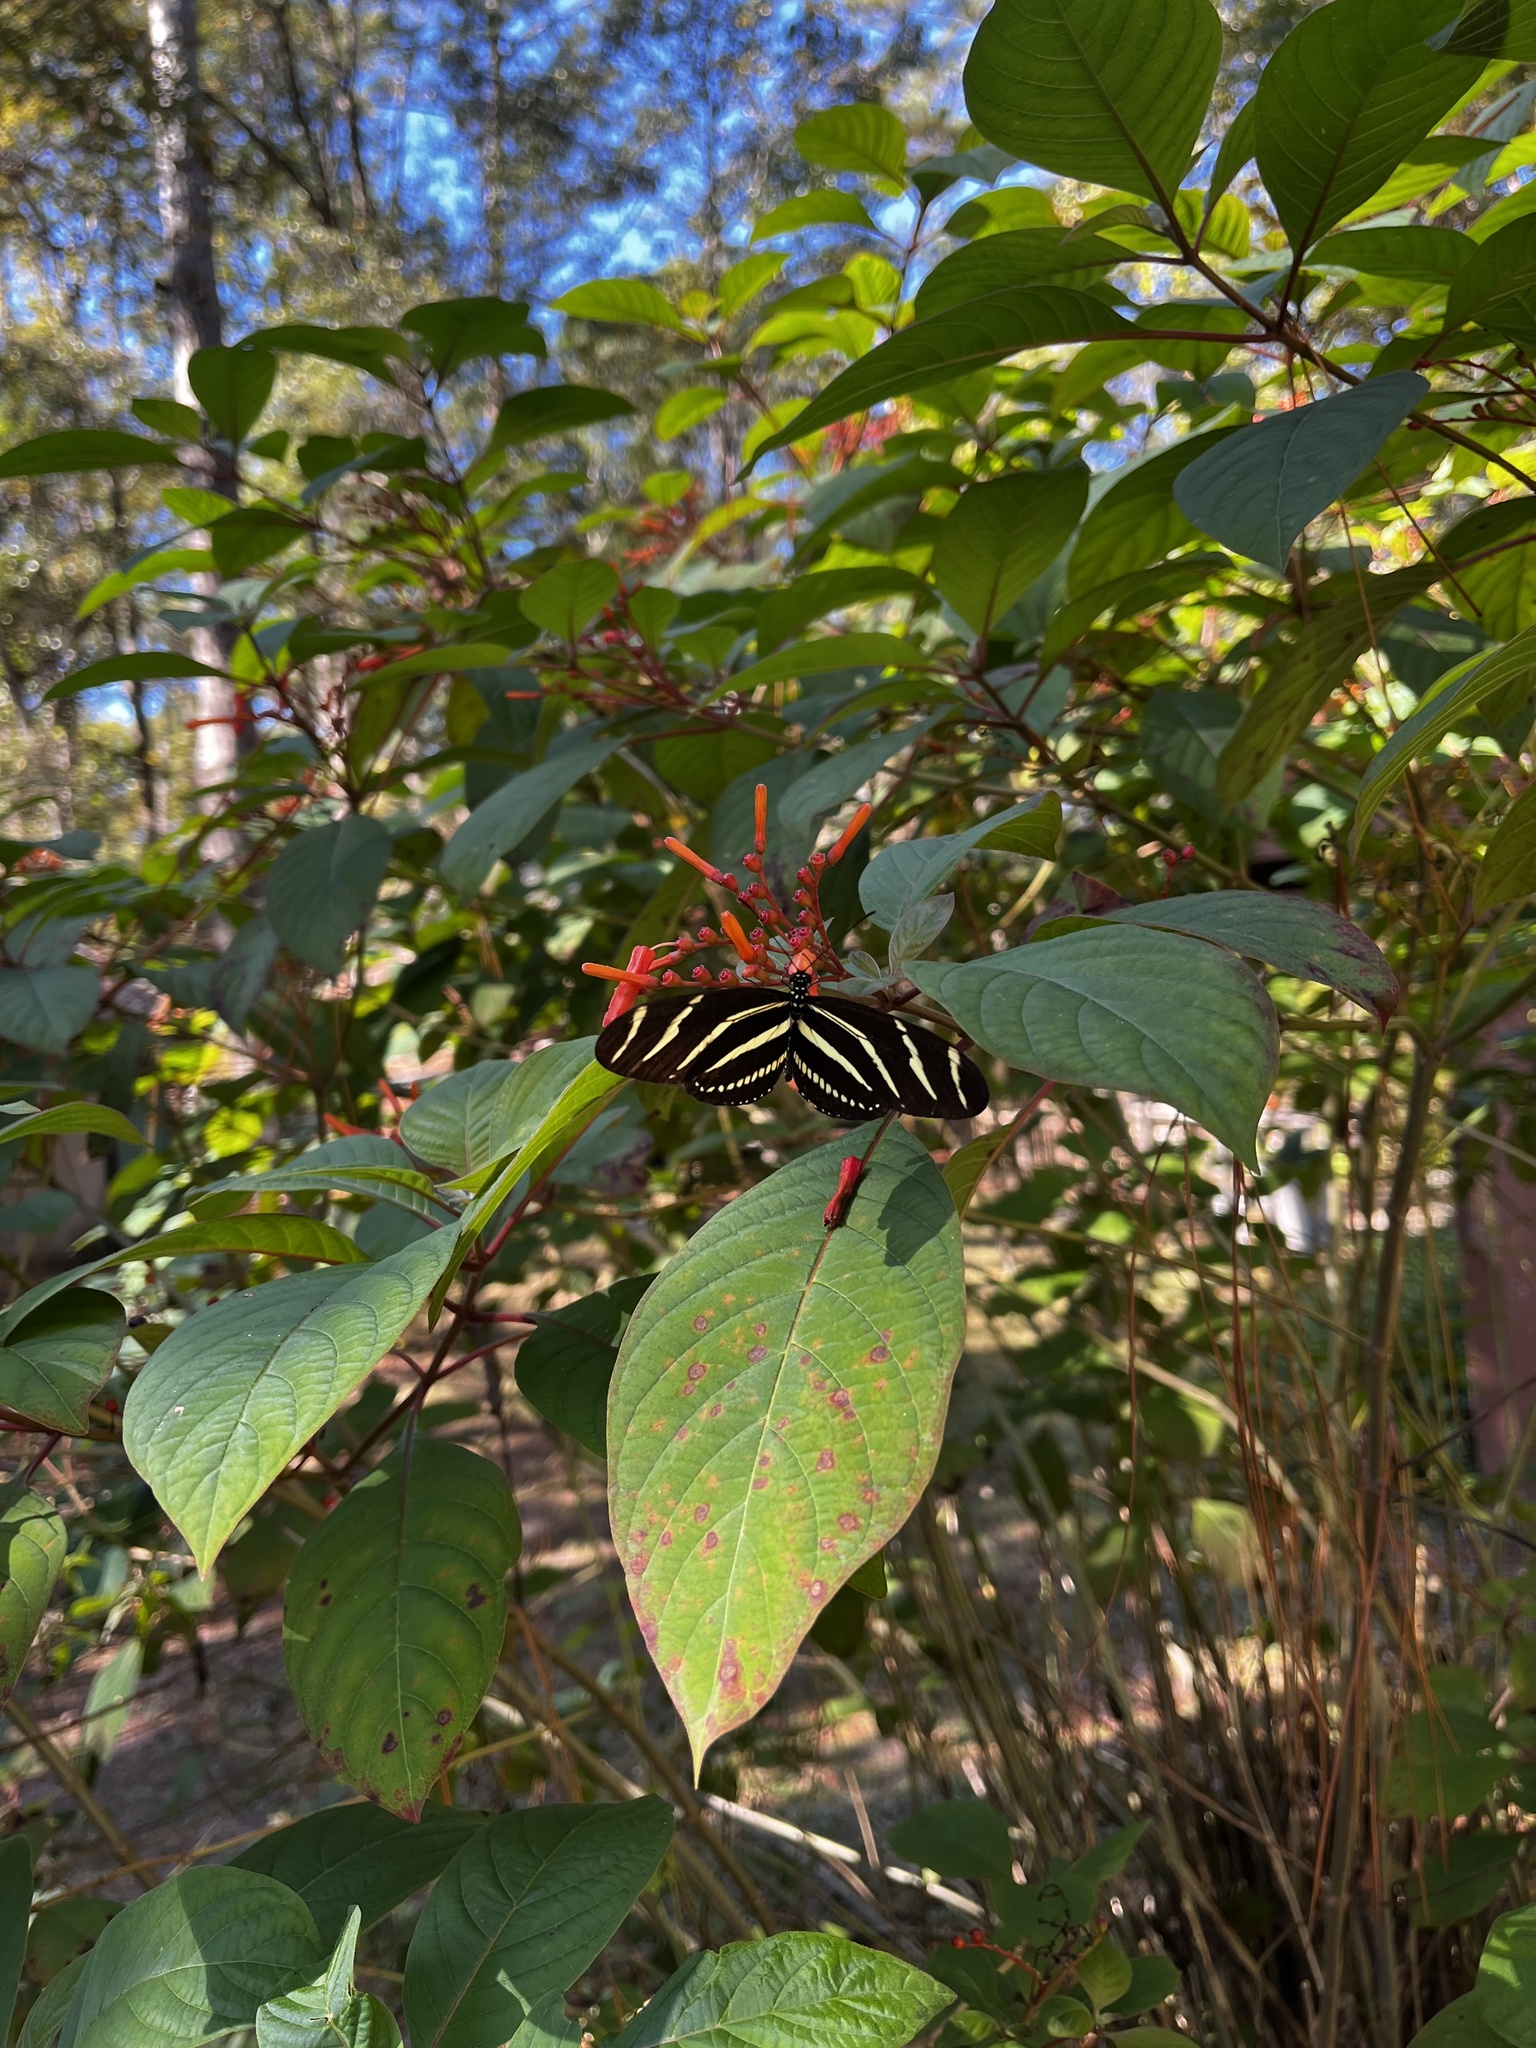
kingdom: Animalia
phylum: Arthropoda
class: Insecta
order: Lepidoptera
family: Nymphalidae
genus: Heliconius
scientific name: Heliconius charithonia
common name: Zebra long wing
